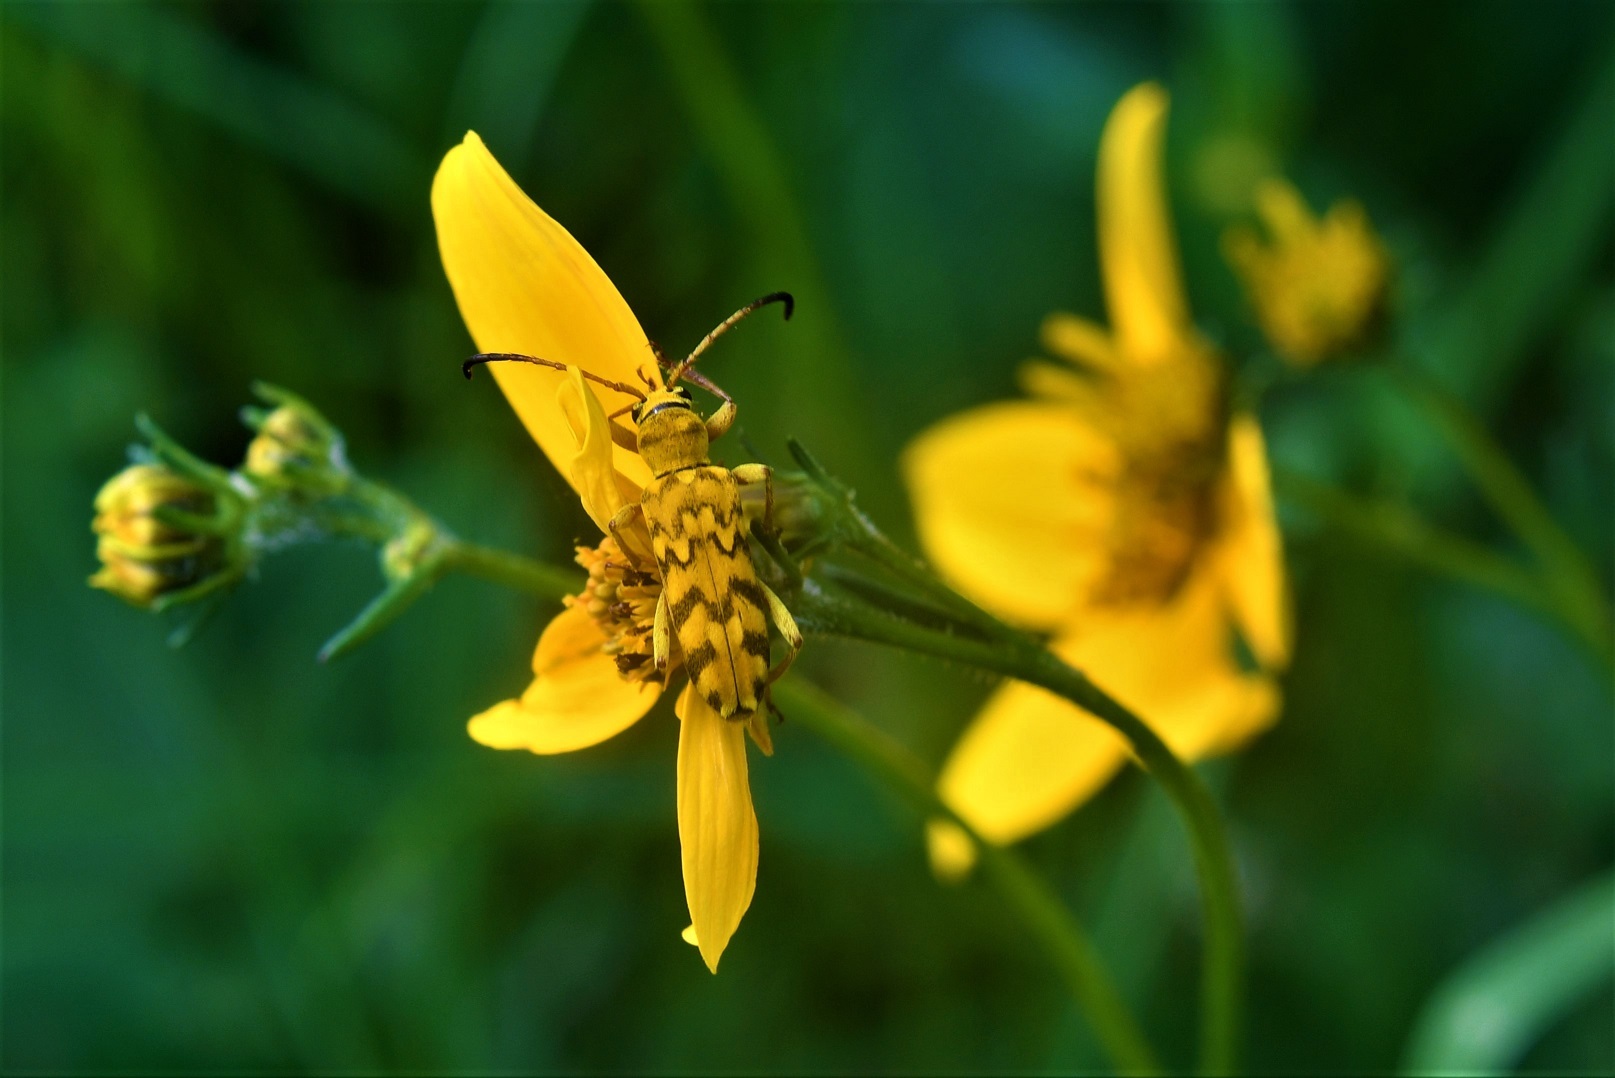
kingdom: Animalia
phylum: Arthropoda
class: Insecta
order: Coleoptera
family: Cerambycidae
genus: Ochraethes
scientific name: Ochraethes pollinosus
